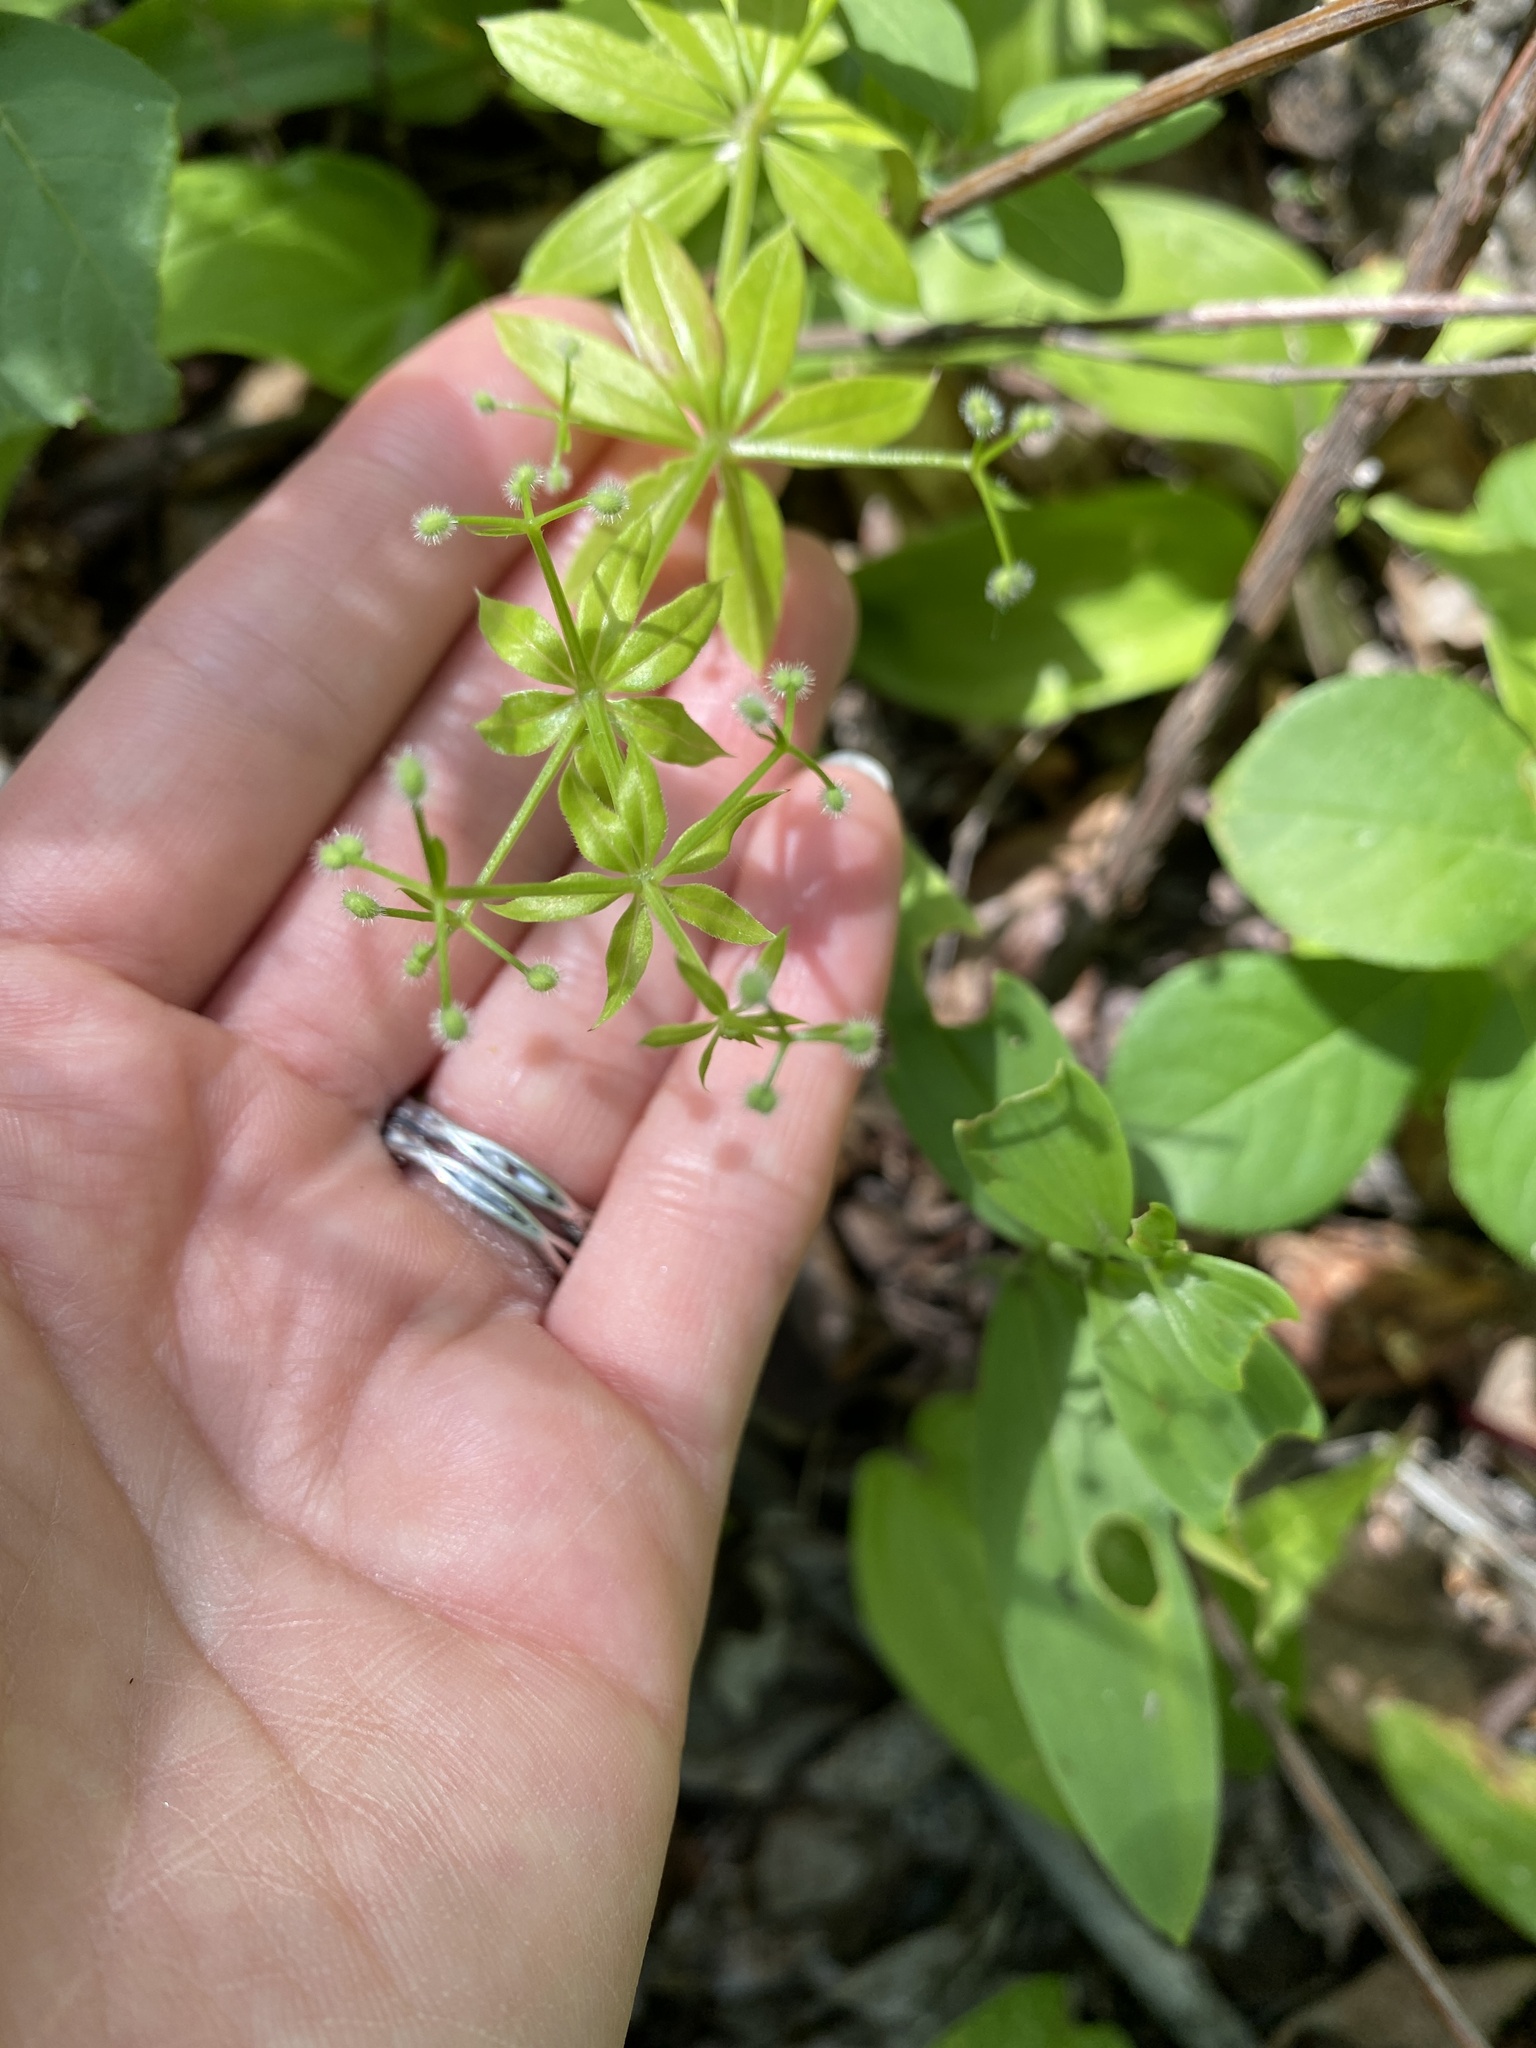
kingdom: Plantae
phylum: Tracheophyta
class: Magnoliopsida
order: Gentianales
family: Rubiaceae
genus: Galium
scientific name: Galium triflorum
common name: Fragrant bedstraw
